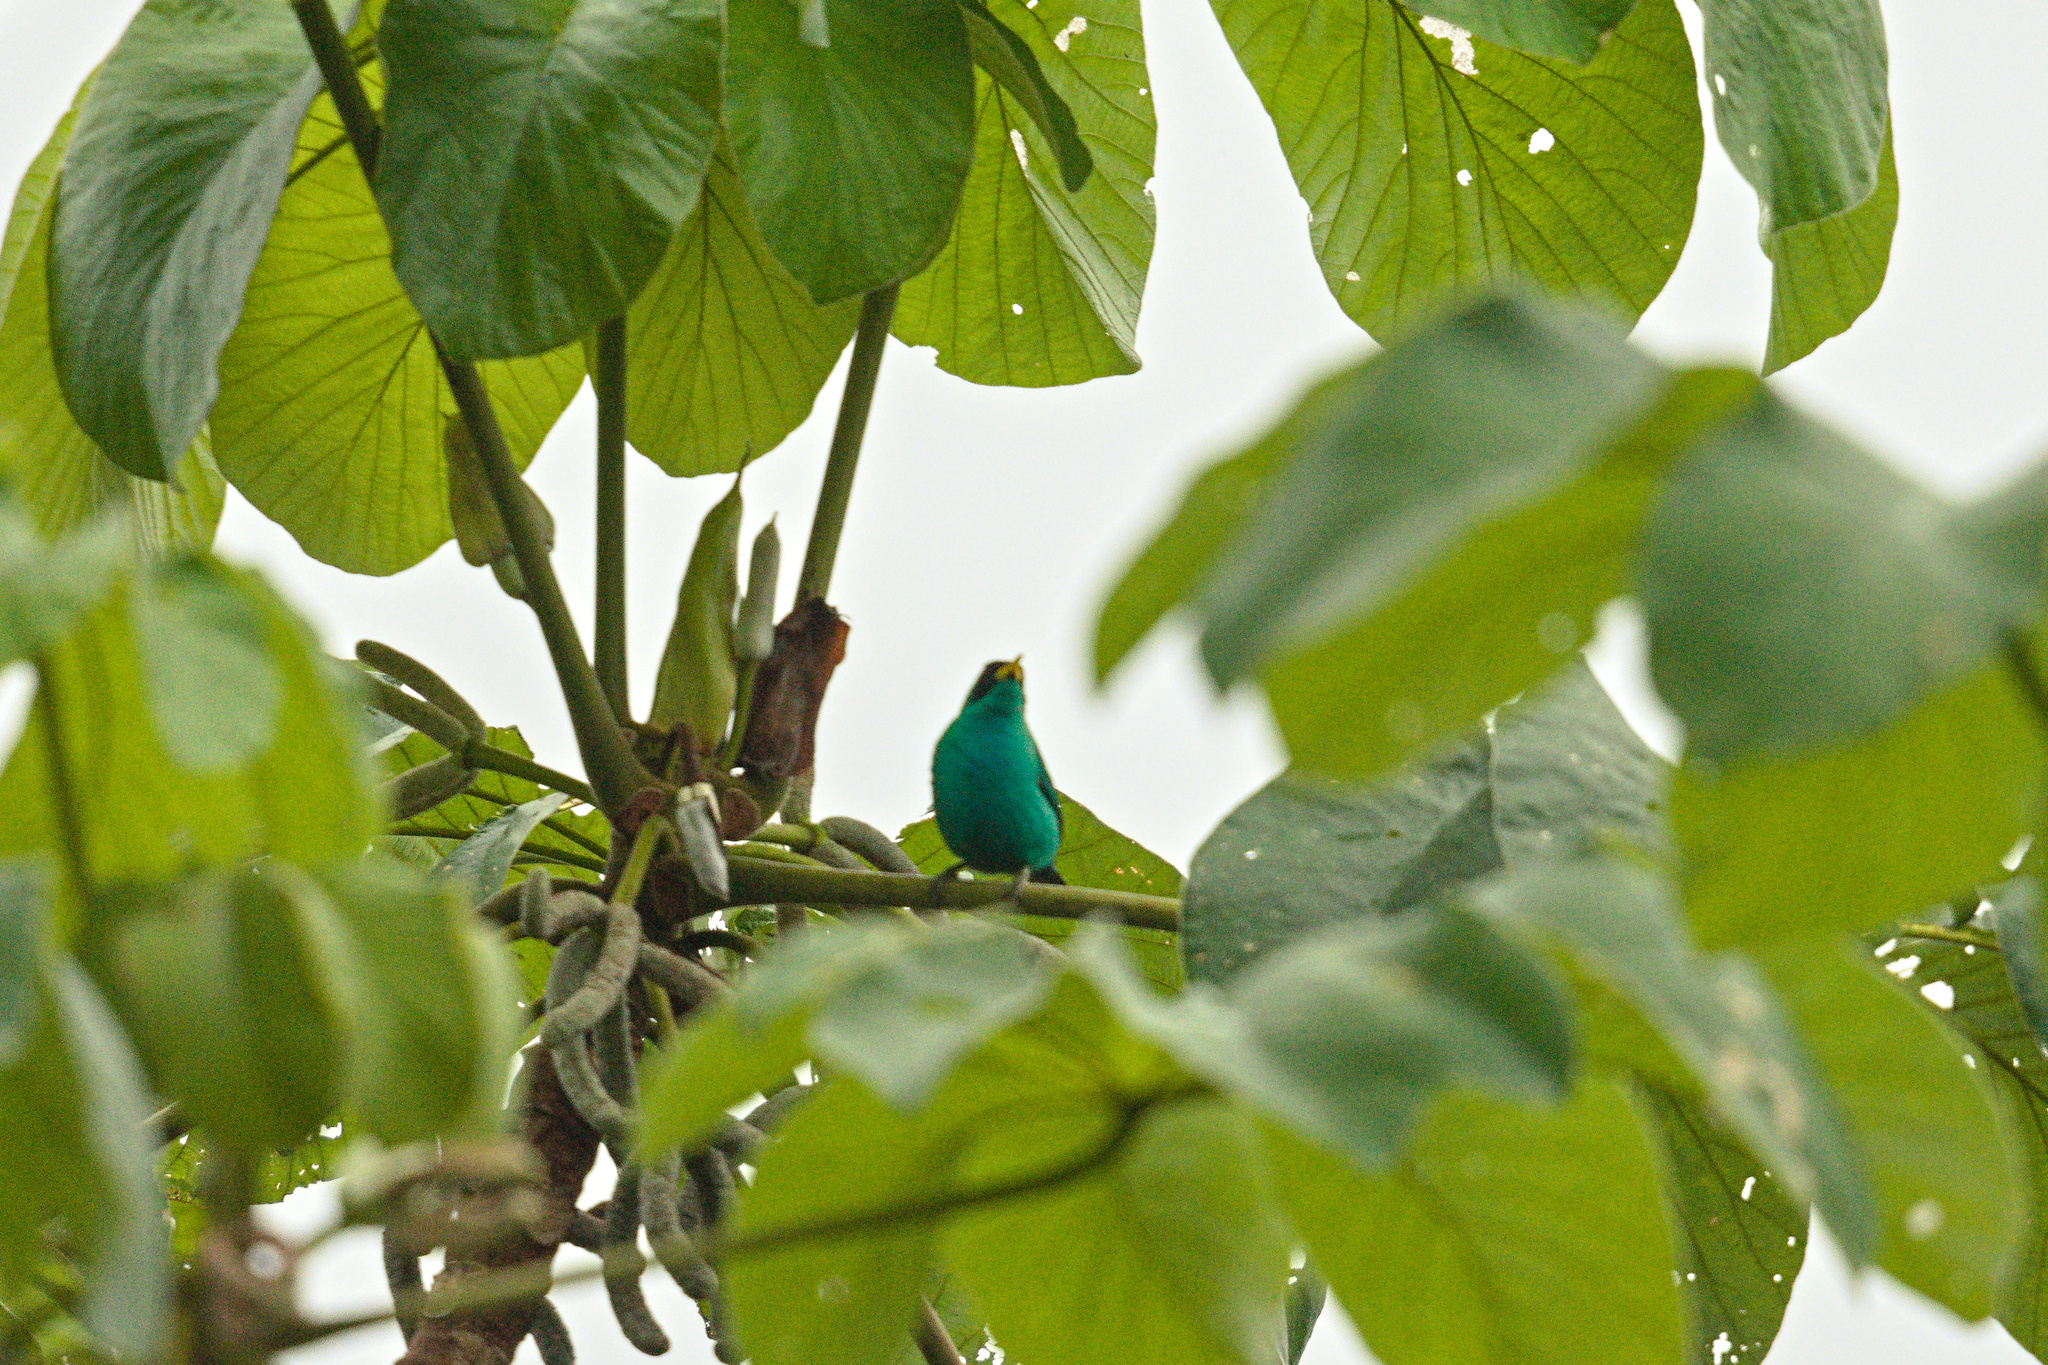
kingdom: Animalia
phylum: Chordata
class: Aves
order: Passeriformes
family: Thraupidae
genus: Chlorophanes
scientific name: Chlorophanes spiza
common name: Green honeycreeper
